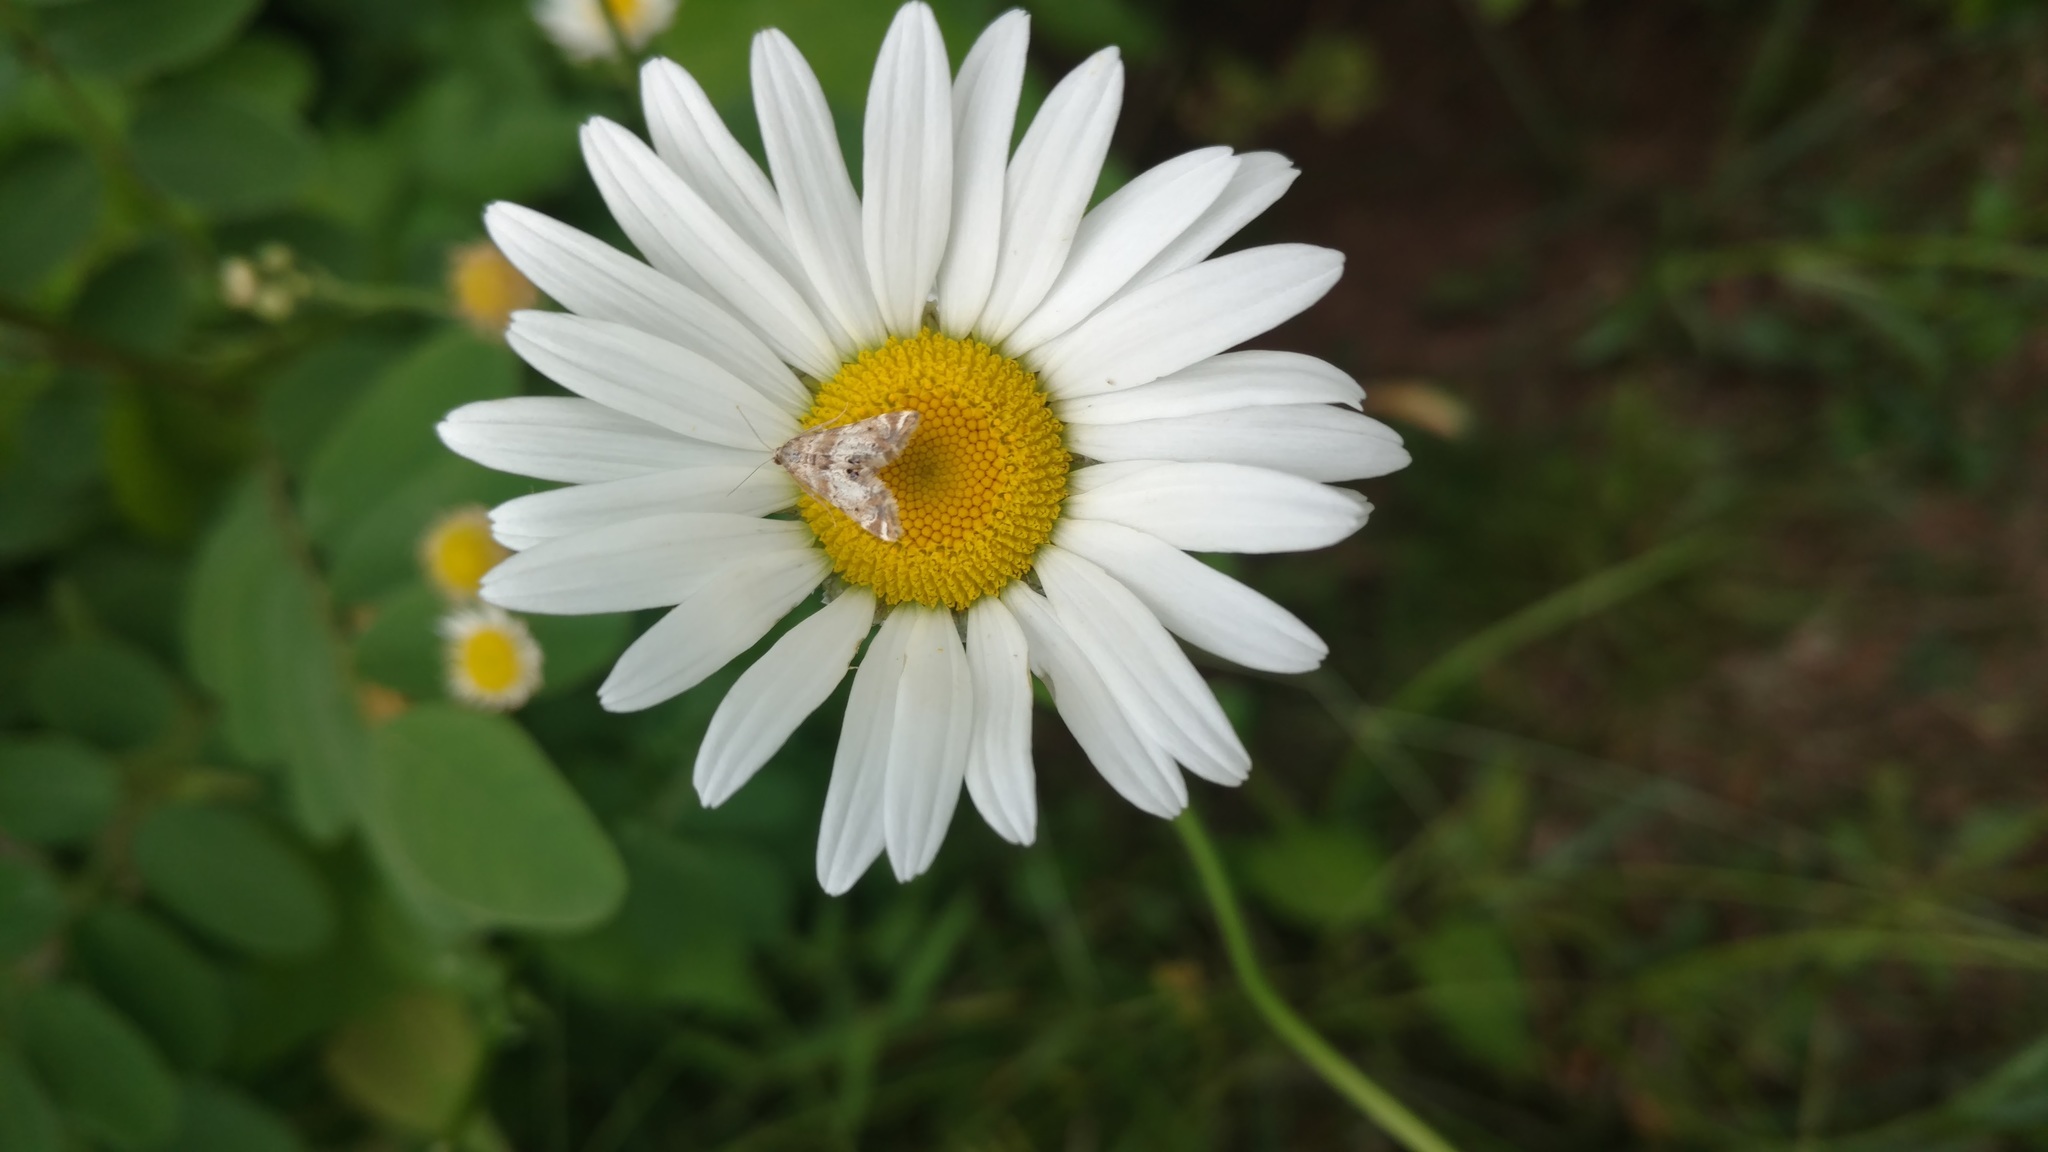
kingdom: Plantae
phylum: Tracheophyta
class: Magnoliopsida
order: Asterales
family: Asteraceae
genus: Leucanthemum
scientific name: Leucanthemum vulgare
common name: Oxeye daisy
